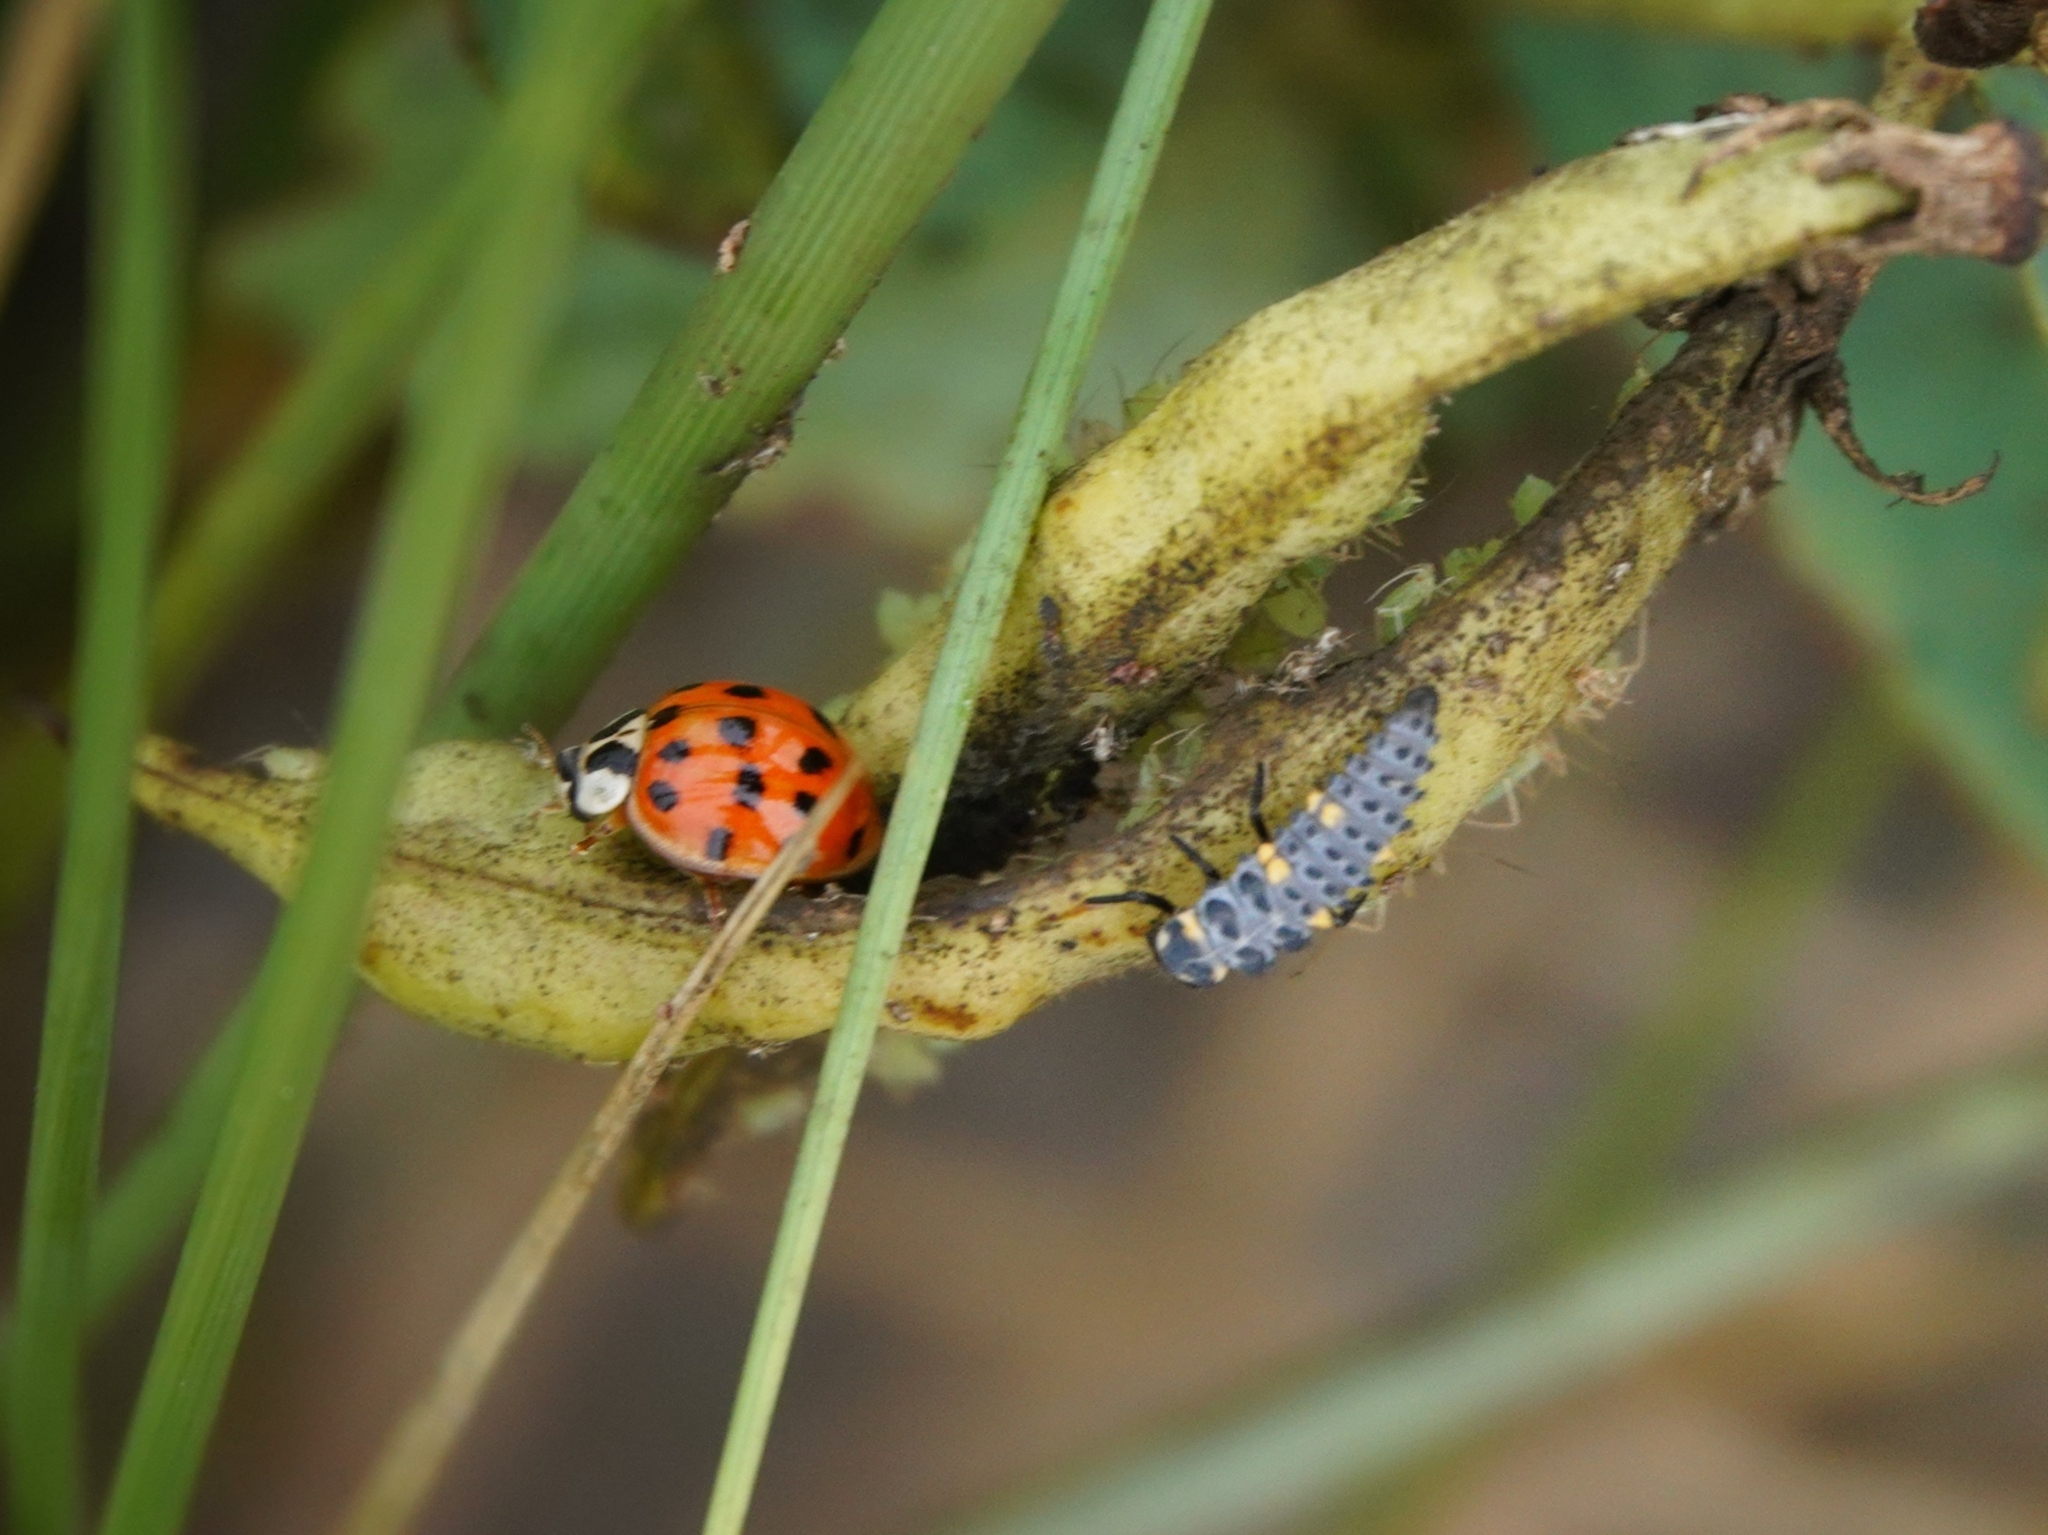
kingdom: Animalia
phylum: Arthropoda
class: Insecta
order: Coleoptera
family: Coccinellidae
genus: Harmonia
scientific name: Harmonia axyridis
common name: Harlequin ladybird
